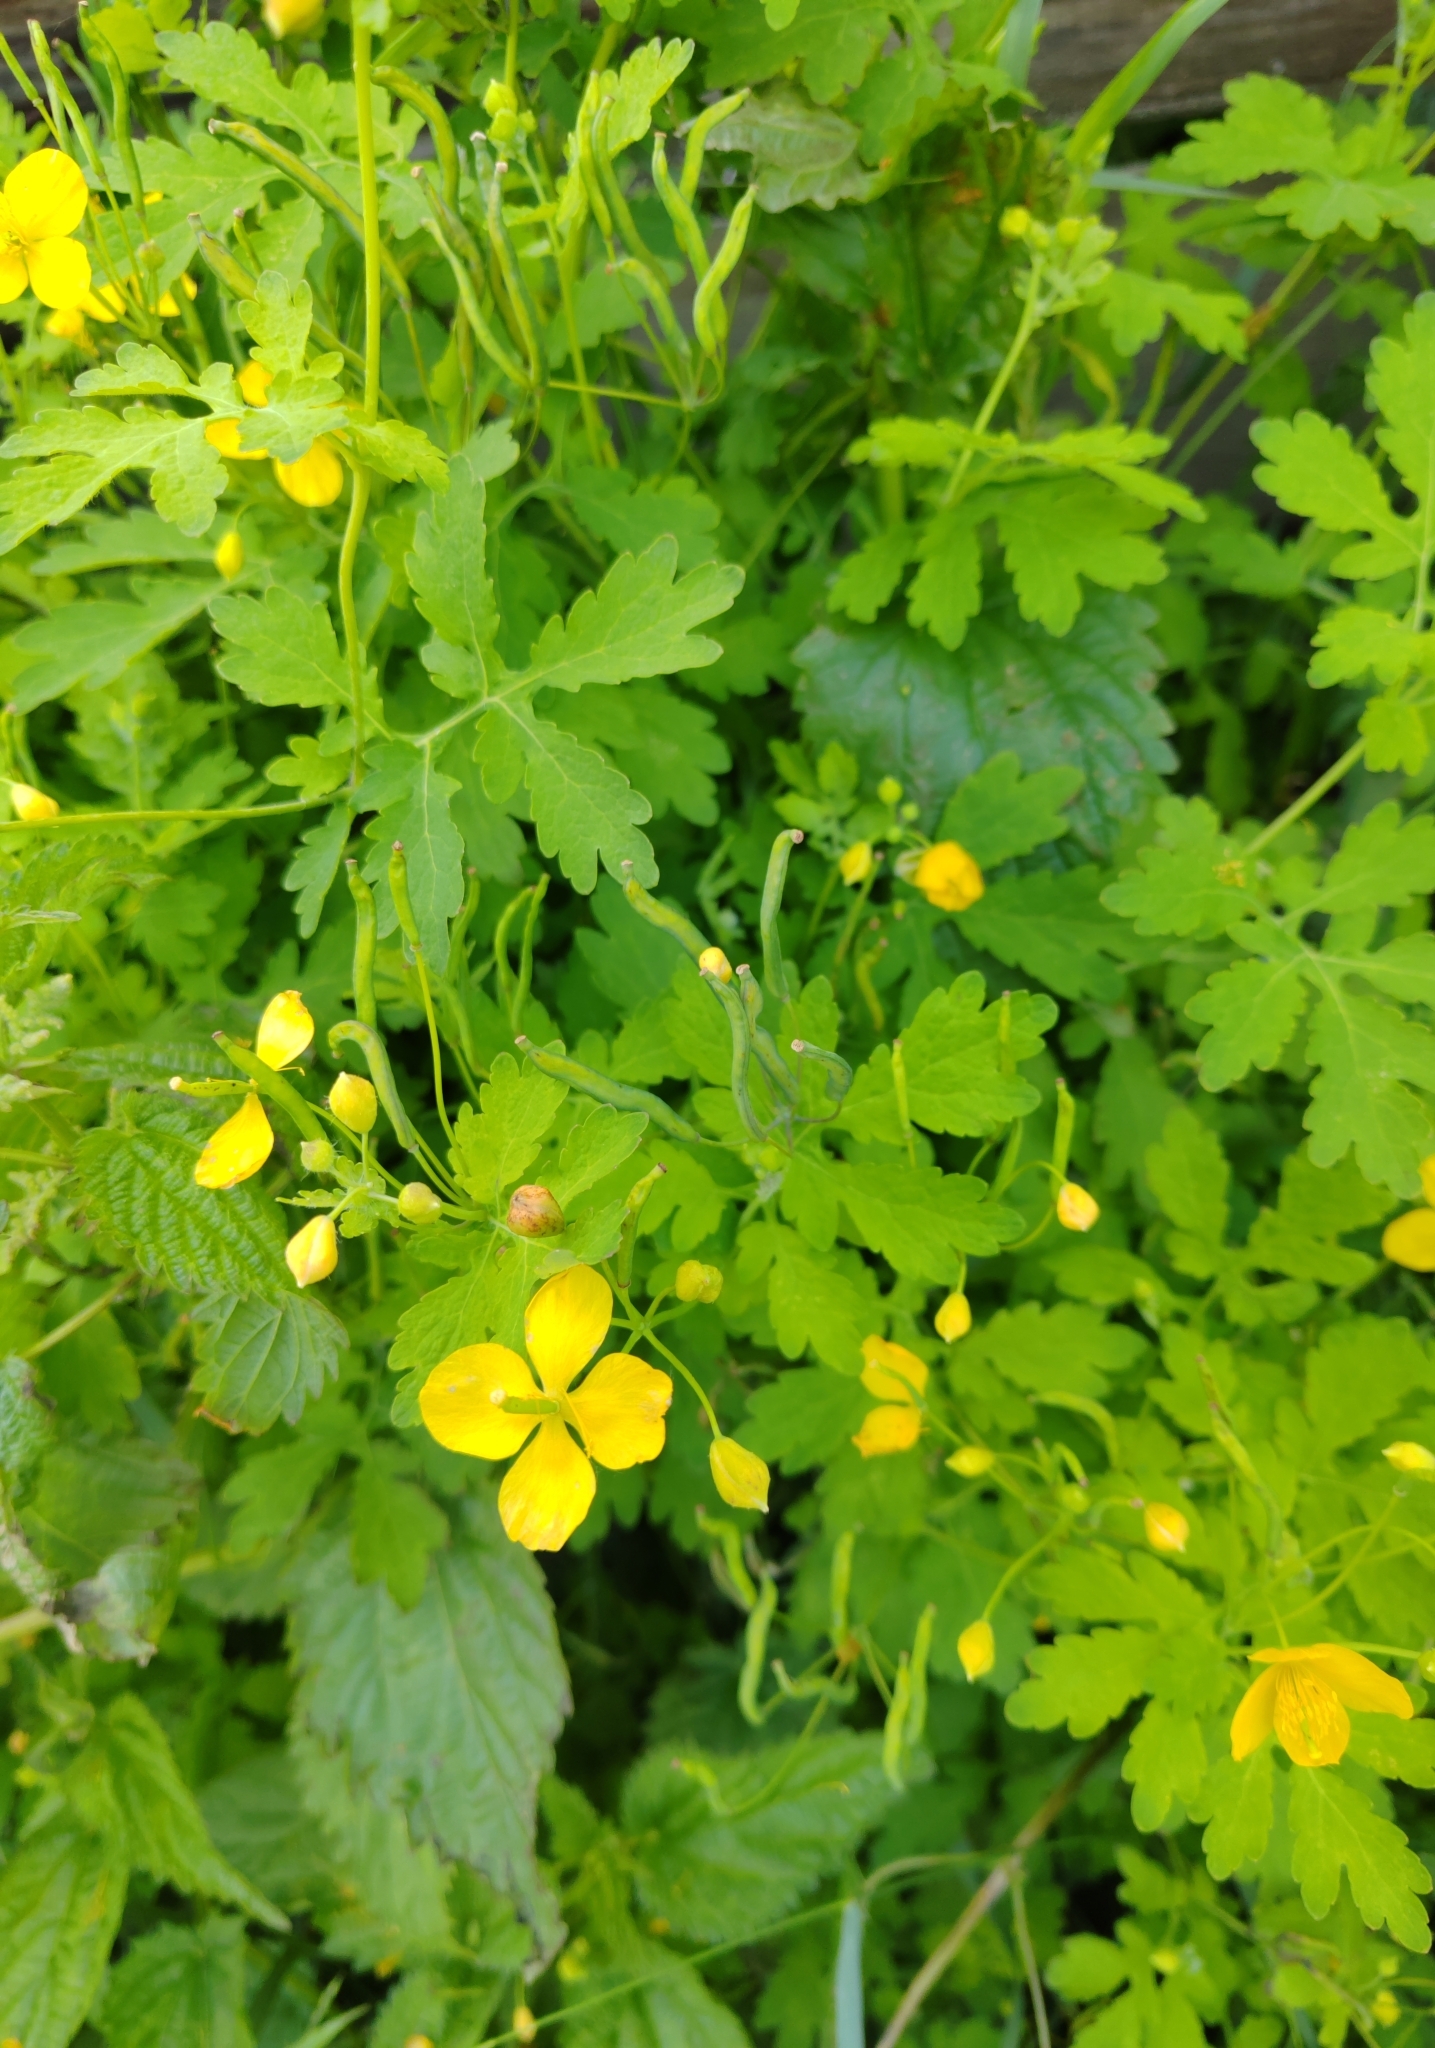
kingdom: Plantae
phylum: Tracheophyta
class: Magnoliopsida
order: Ranunculales
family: Papaveraceae
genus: Chelidonium
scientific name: Chelidonium majus
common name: Greater celandine
